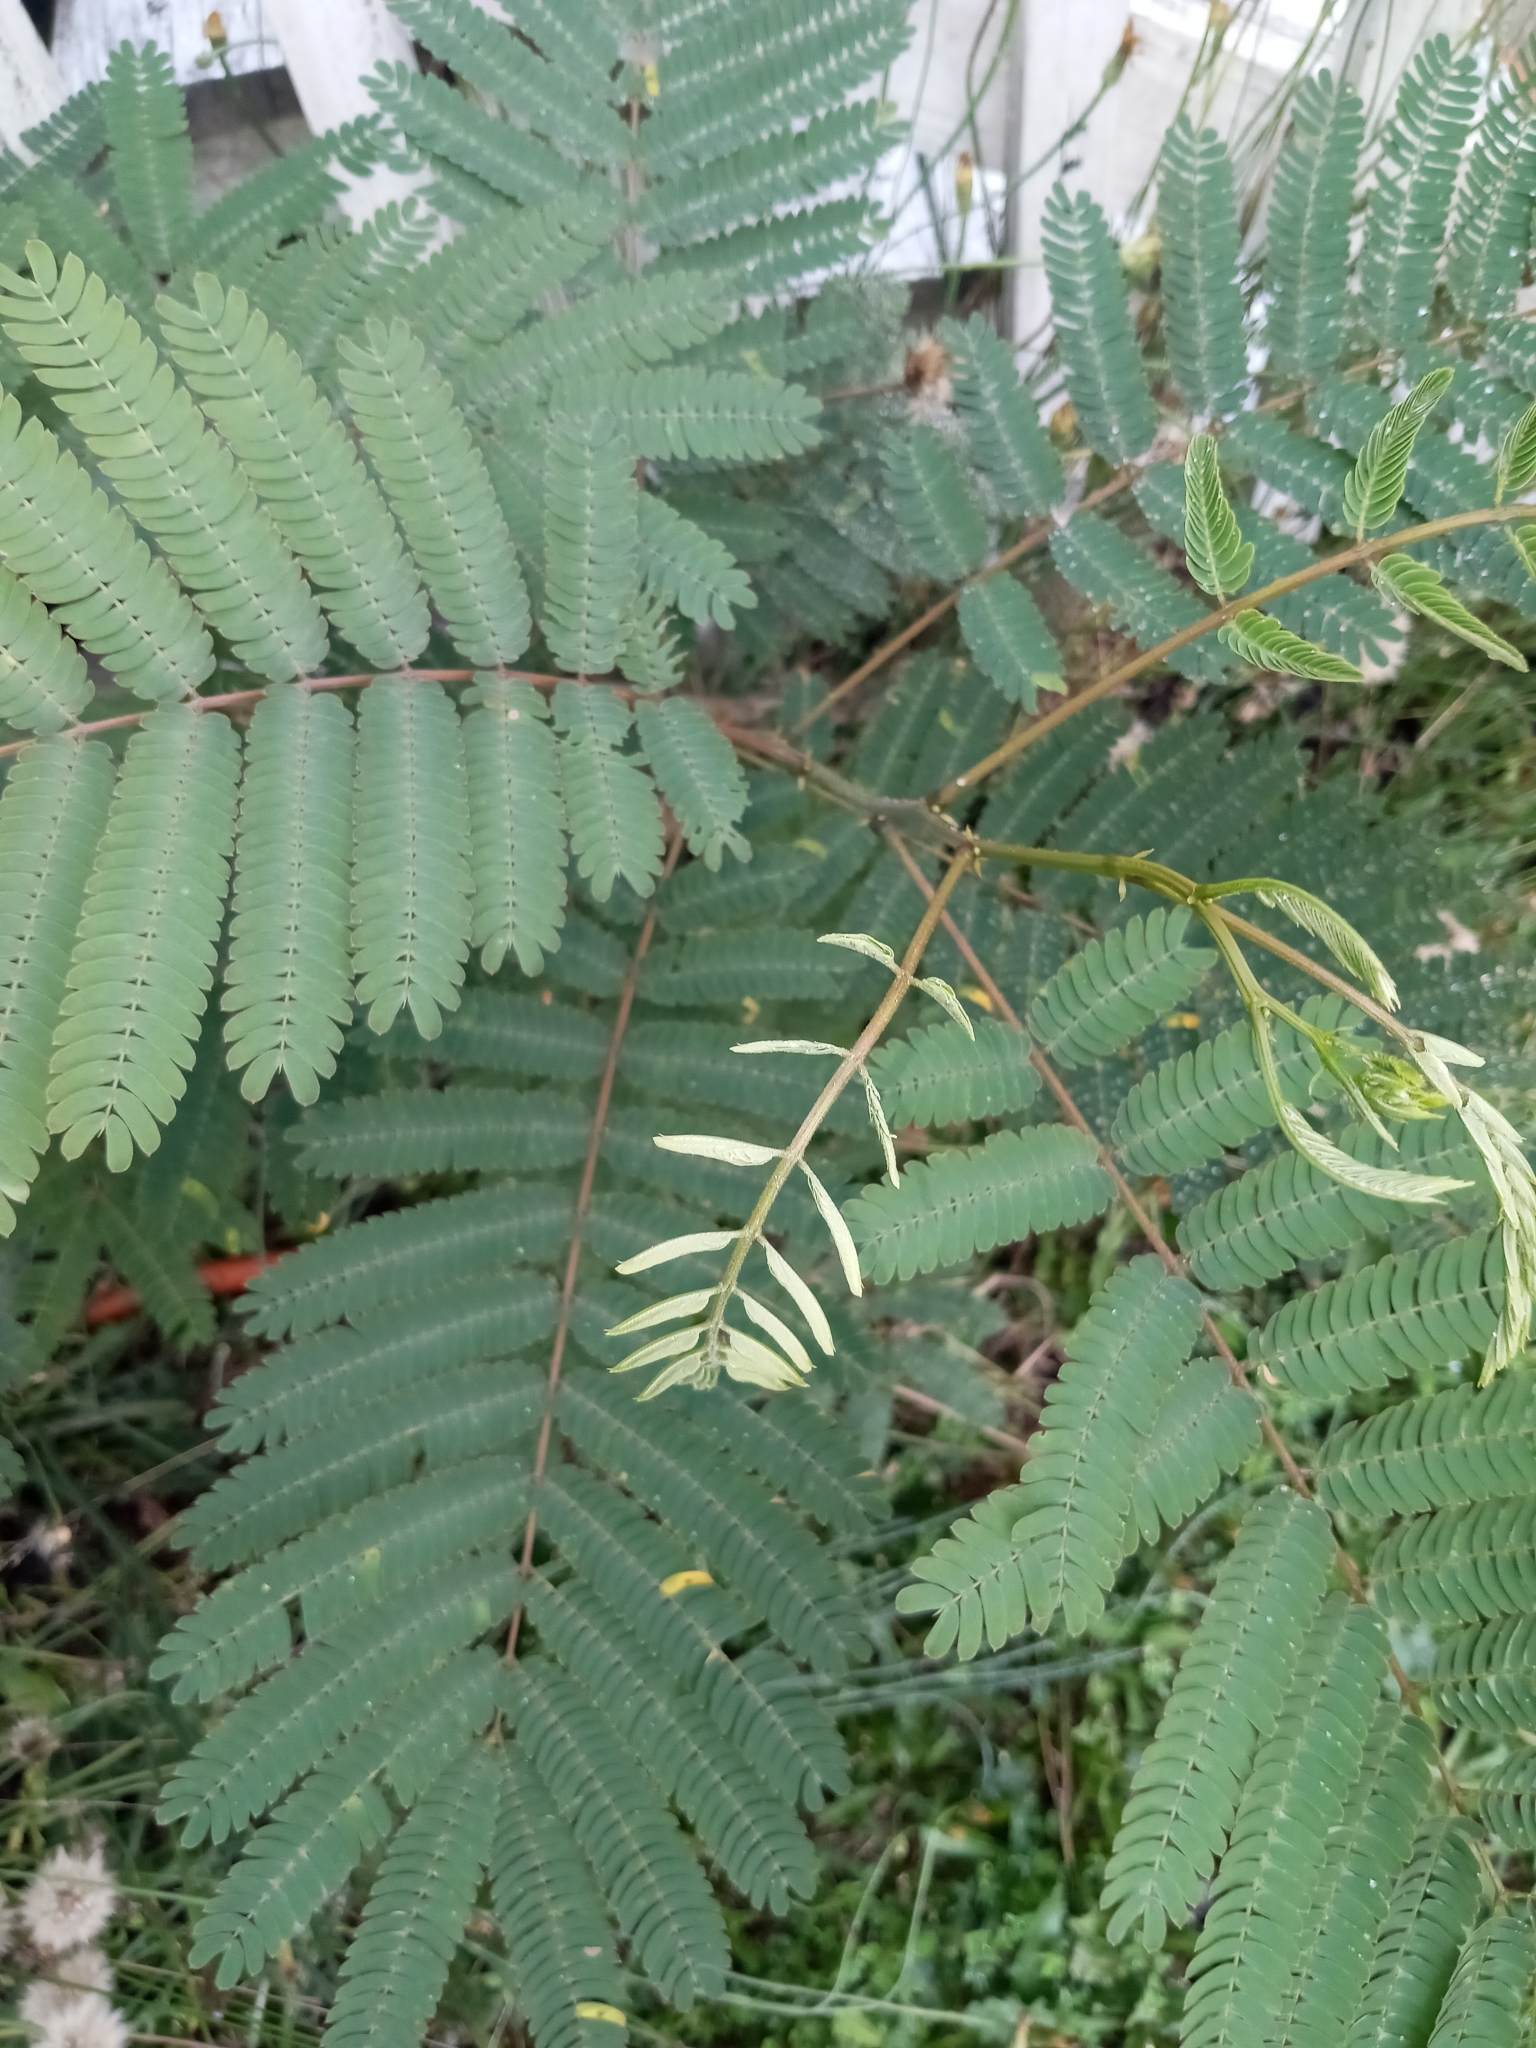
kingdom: Plantae
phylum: Tracheophyta
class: Magnoliopsida
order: Fabales
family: Fabaceae
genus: Albizia
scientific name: Albizia julibrissin
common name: Silktree
